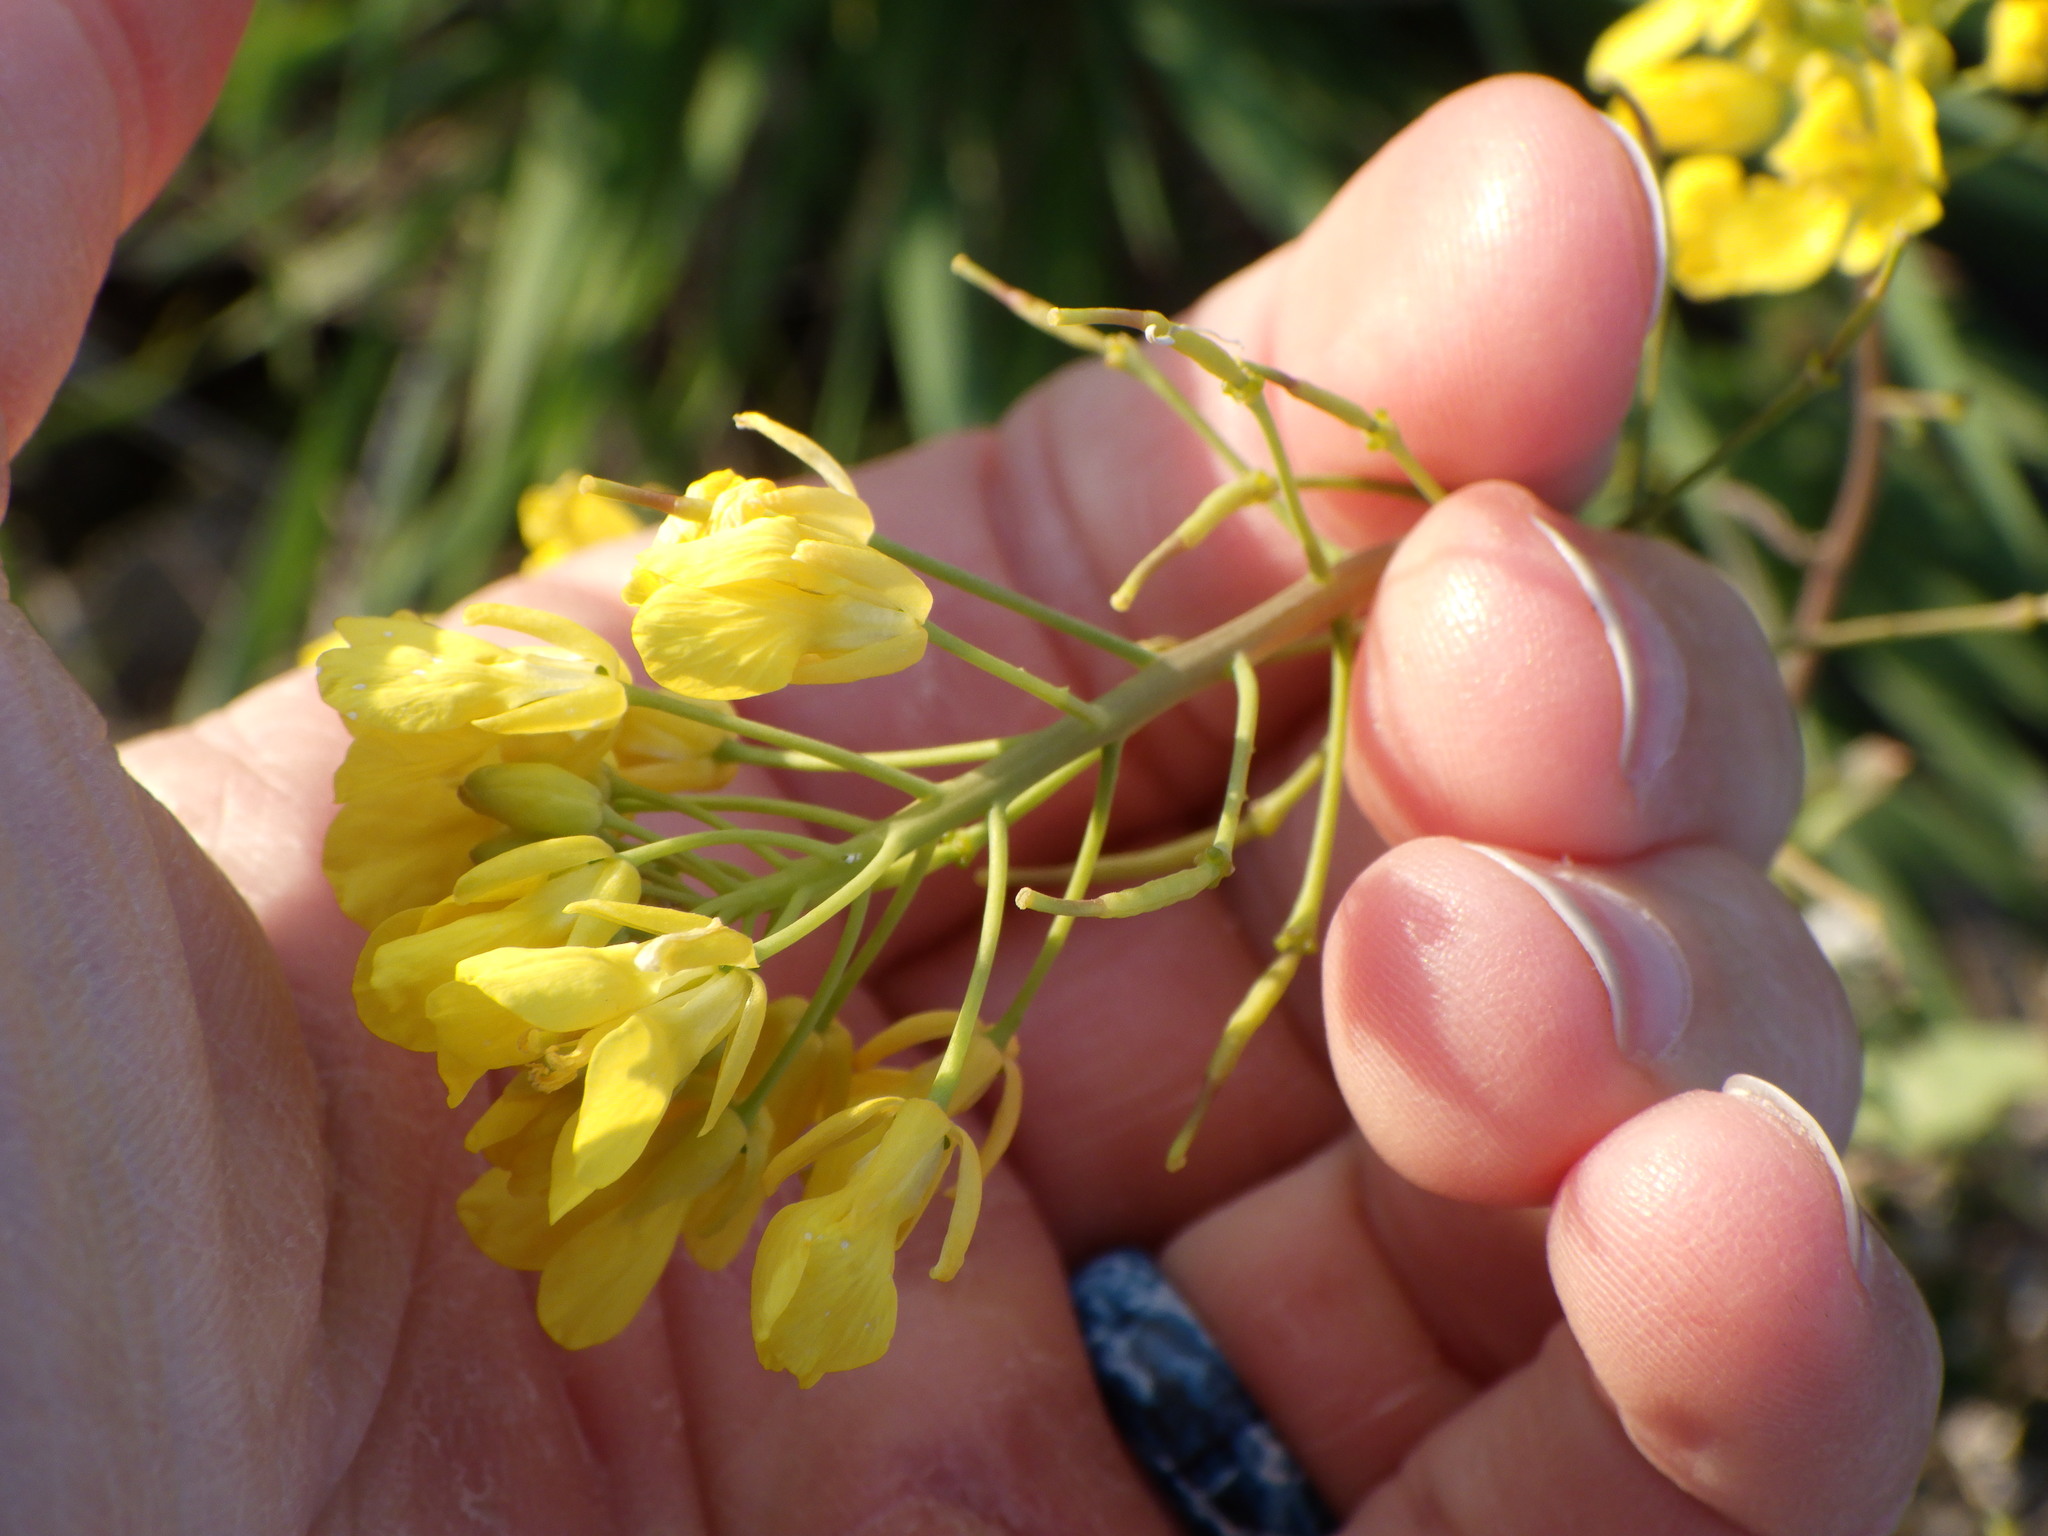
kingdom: Plantae
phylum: Tracheophyta
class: Magnoliopsida
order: Brassicales
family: Brassicaceae
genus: Brassica
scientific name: Brassica rapa
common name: Field mustard
